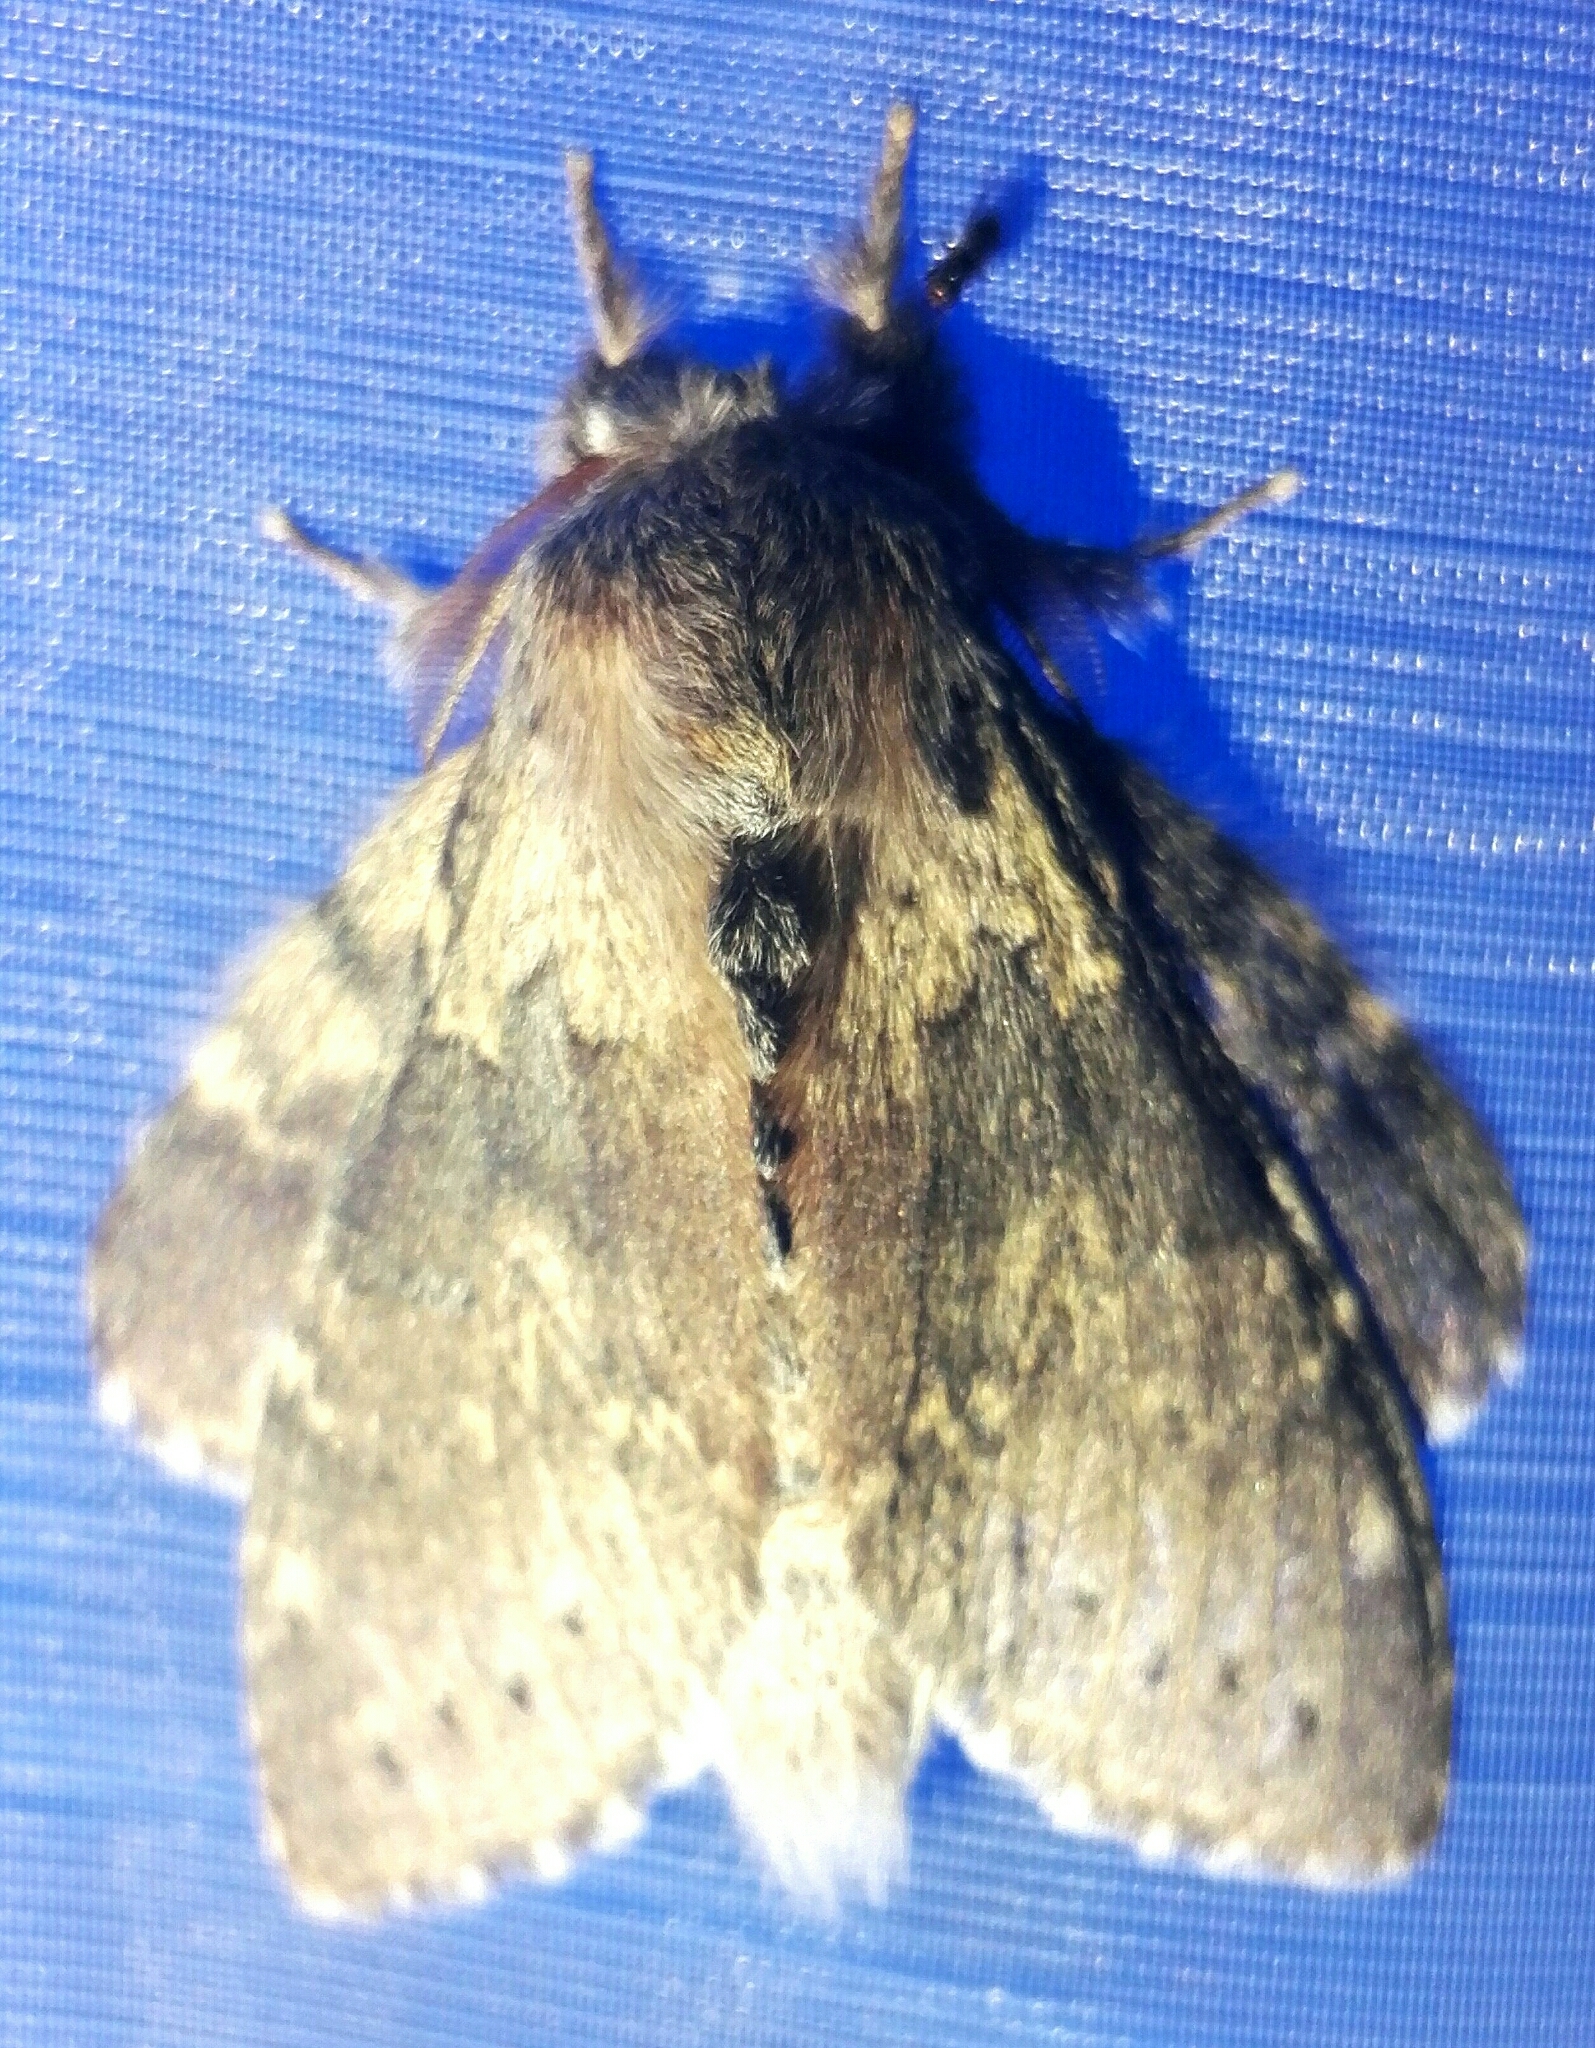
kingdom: Animalia
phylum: Arthropoda
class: Insecta
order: Lepidoptera
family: Notodontidae
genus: Stauropus
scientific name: Stauropus fagi
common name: Lobster moth
